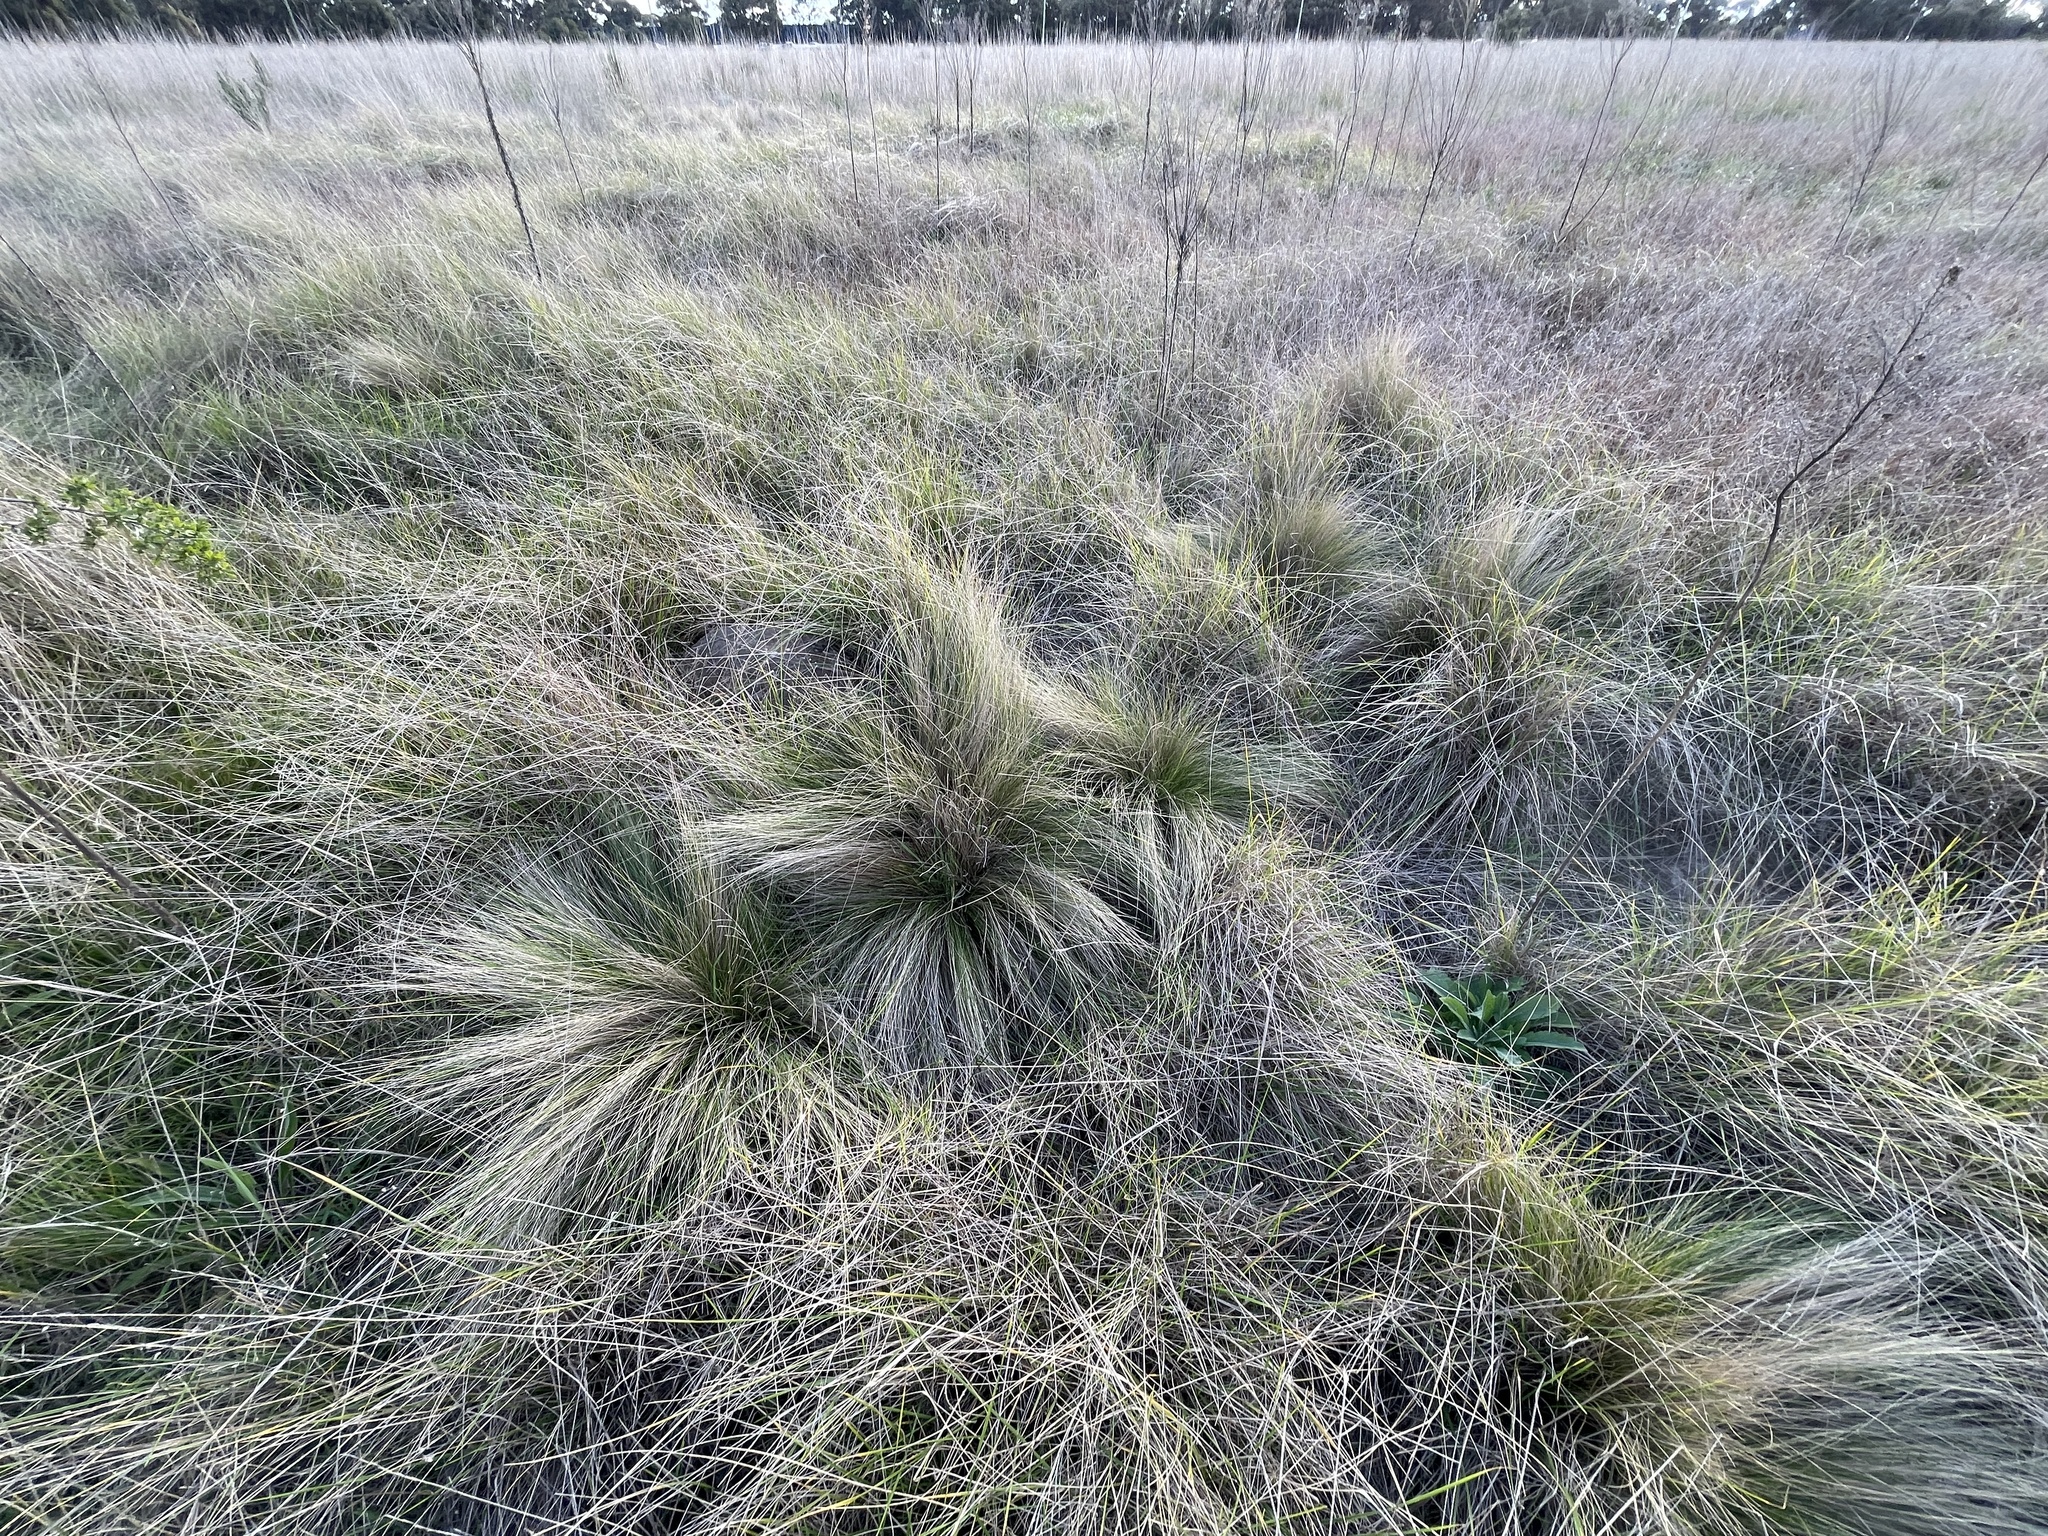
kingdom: Plantae
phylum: Tracheophyta
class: Liliopsida
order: Poales
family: Poaceae
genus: Nassella
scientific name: Nassella trichotoma
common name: Serrated tussock grass
